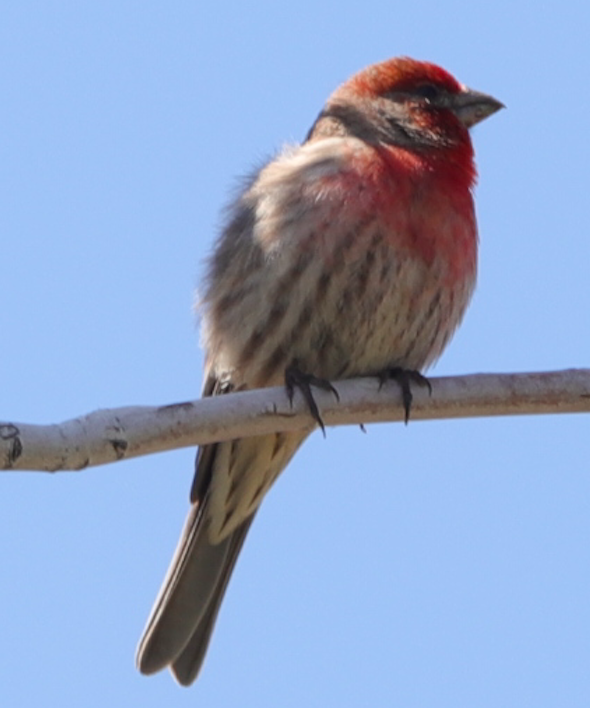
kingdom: Animalia
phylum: Chordata
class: Aves
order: Passeriformes
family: Fringillidae
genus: Haemorhous
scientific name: Haemorhous mexicanus
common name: House finch
